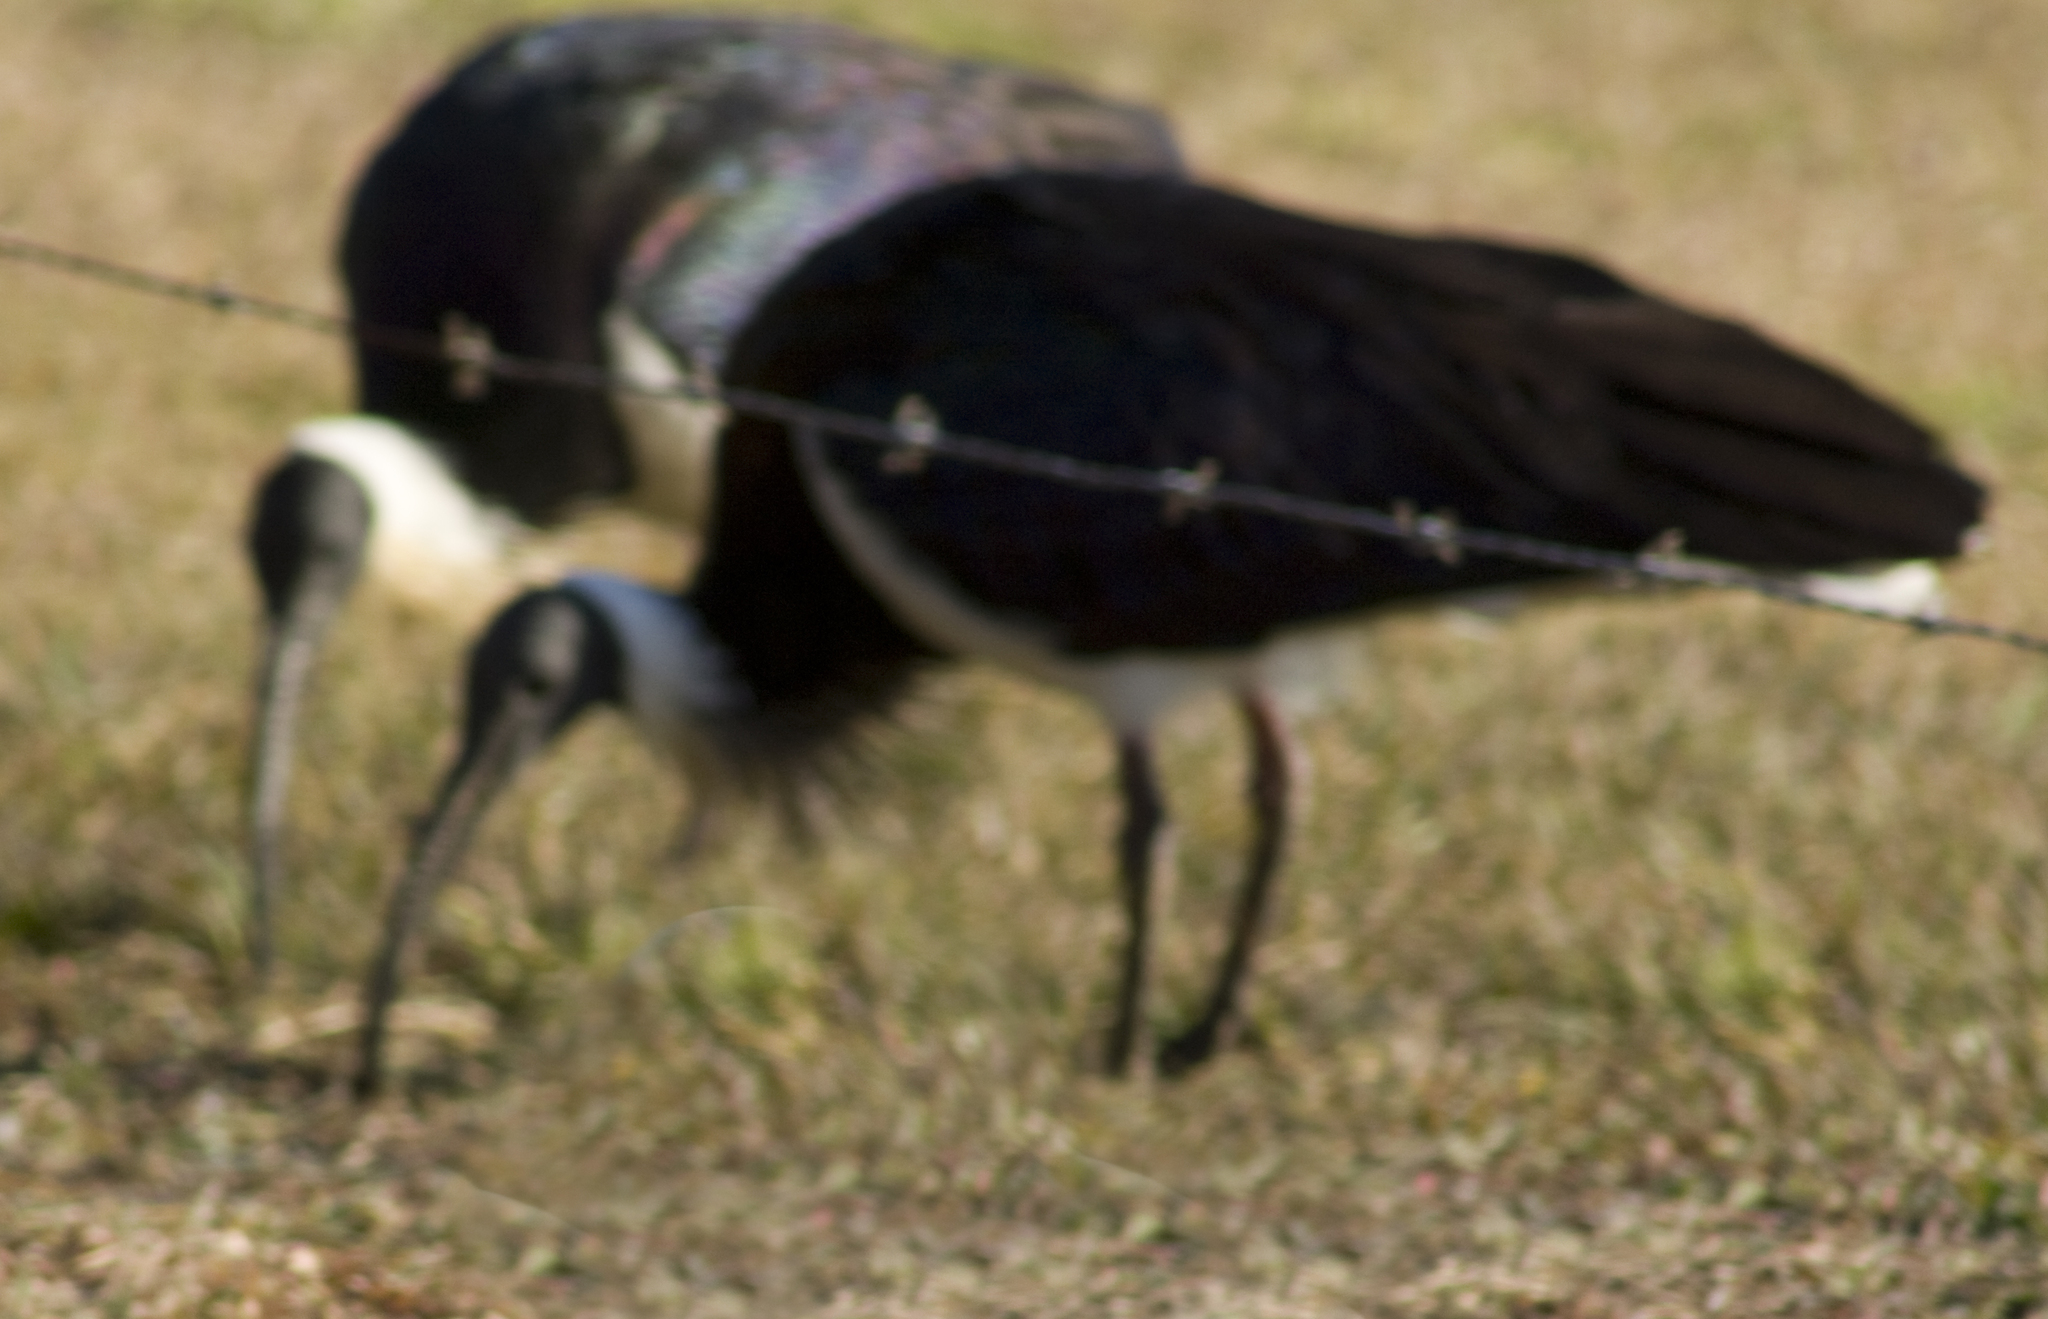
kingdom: Animalia
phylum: Chordata
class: Aves
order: Pelecaniformes
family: Threskiornithidae
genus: Threskiornis
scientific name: Threskiornis spinicollis
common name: Straw-necked ibis
